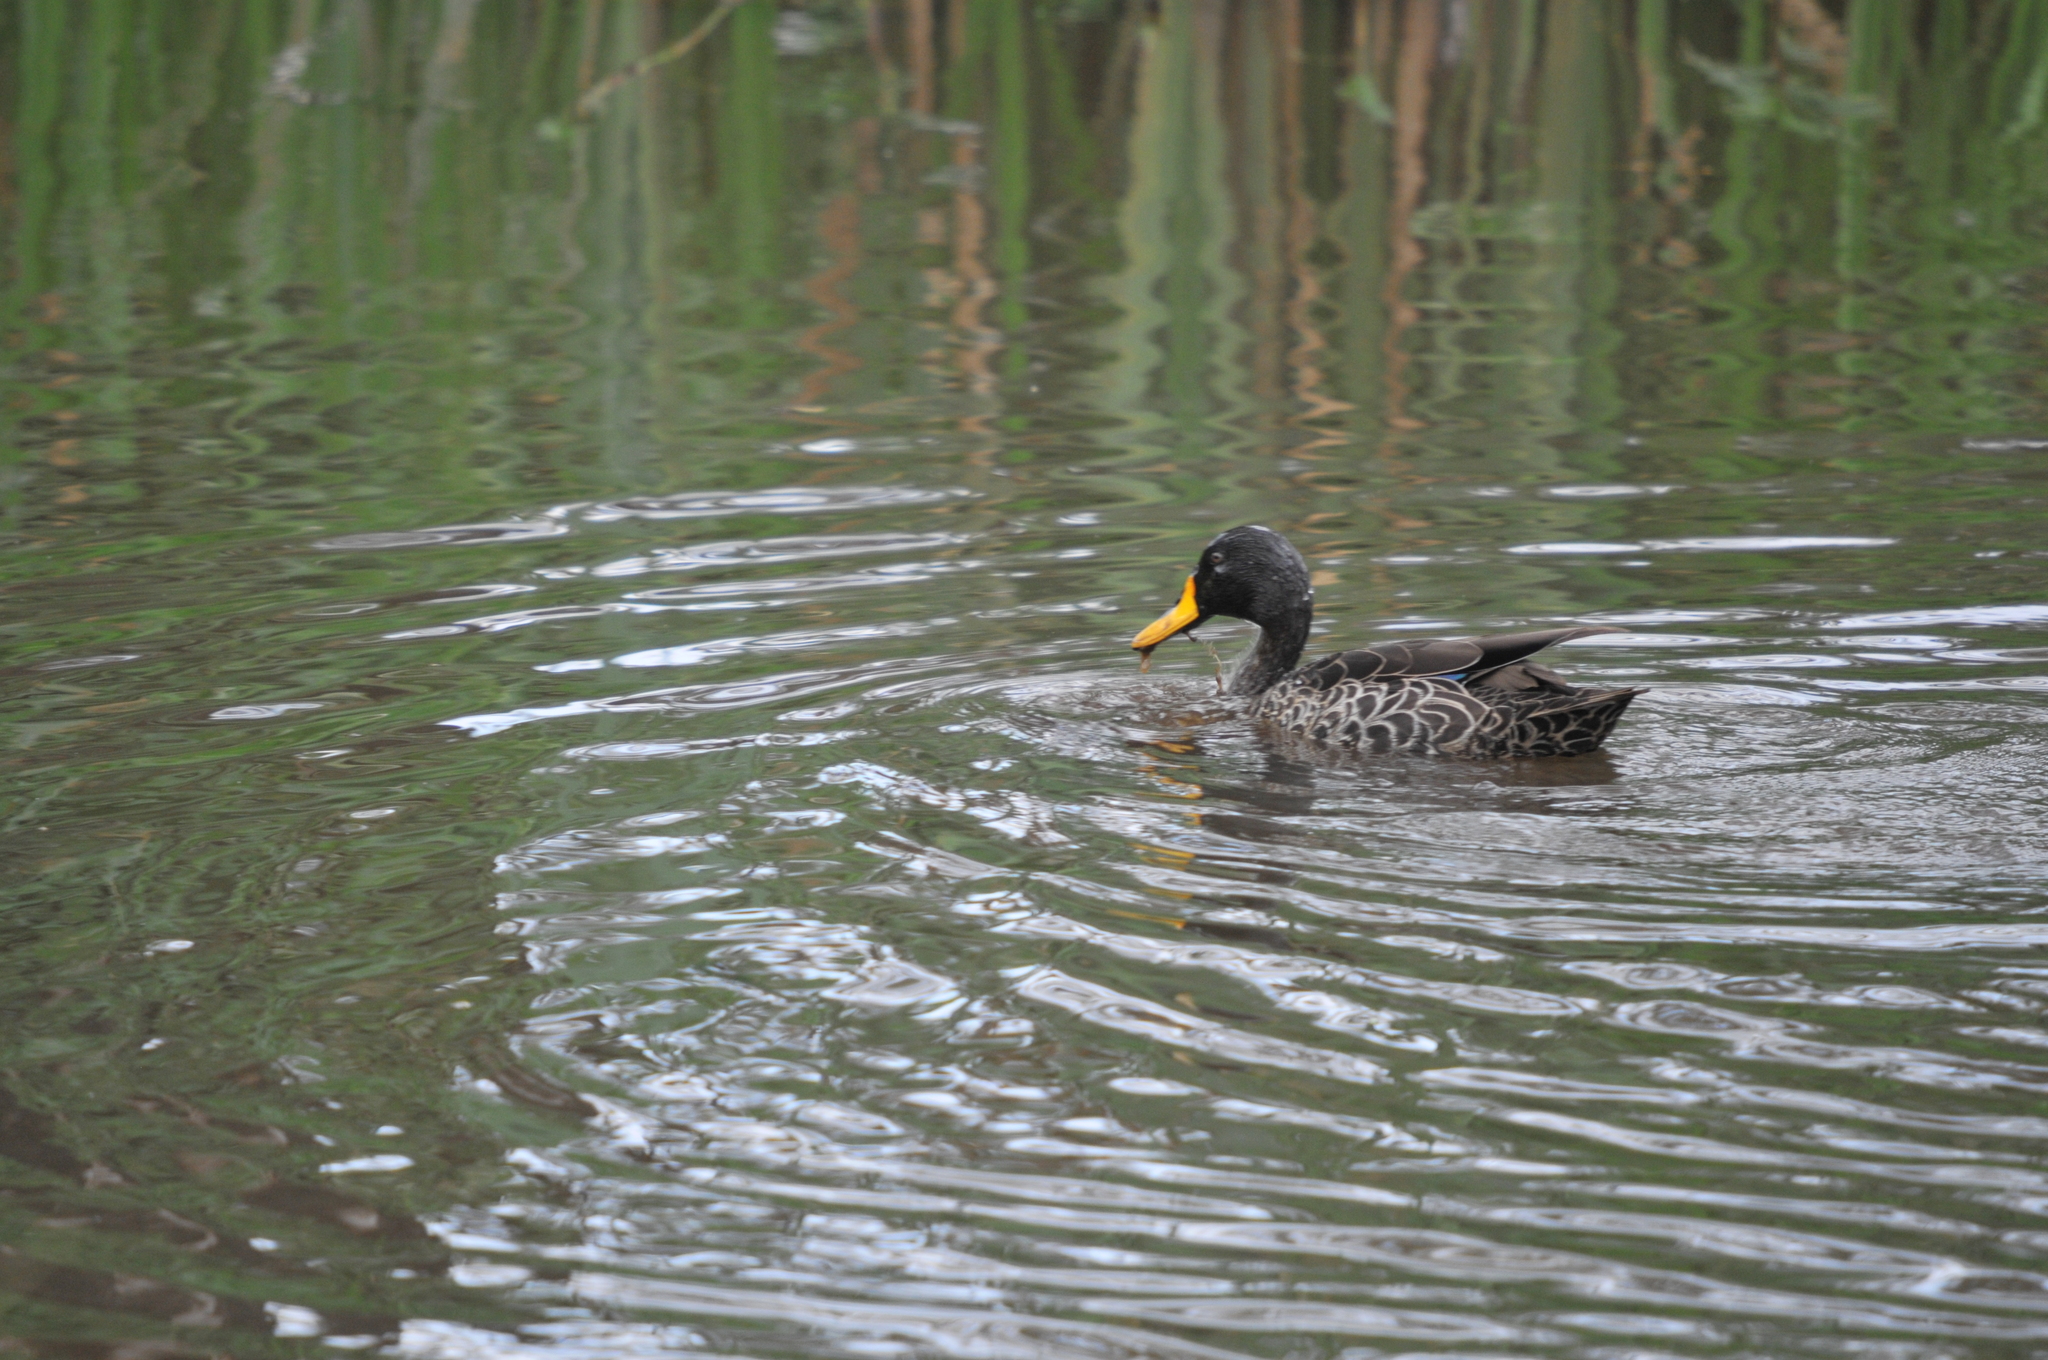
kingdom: Animalia
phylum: Chordata
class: Aves
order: Anseriformes
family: Anatidae
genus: Anas
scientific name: Anas undulata
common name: Yellow-billed duck
